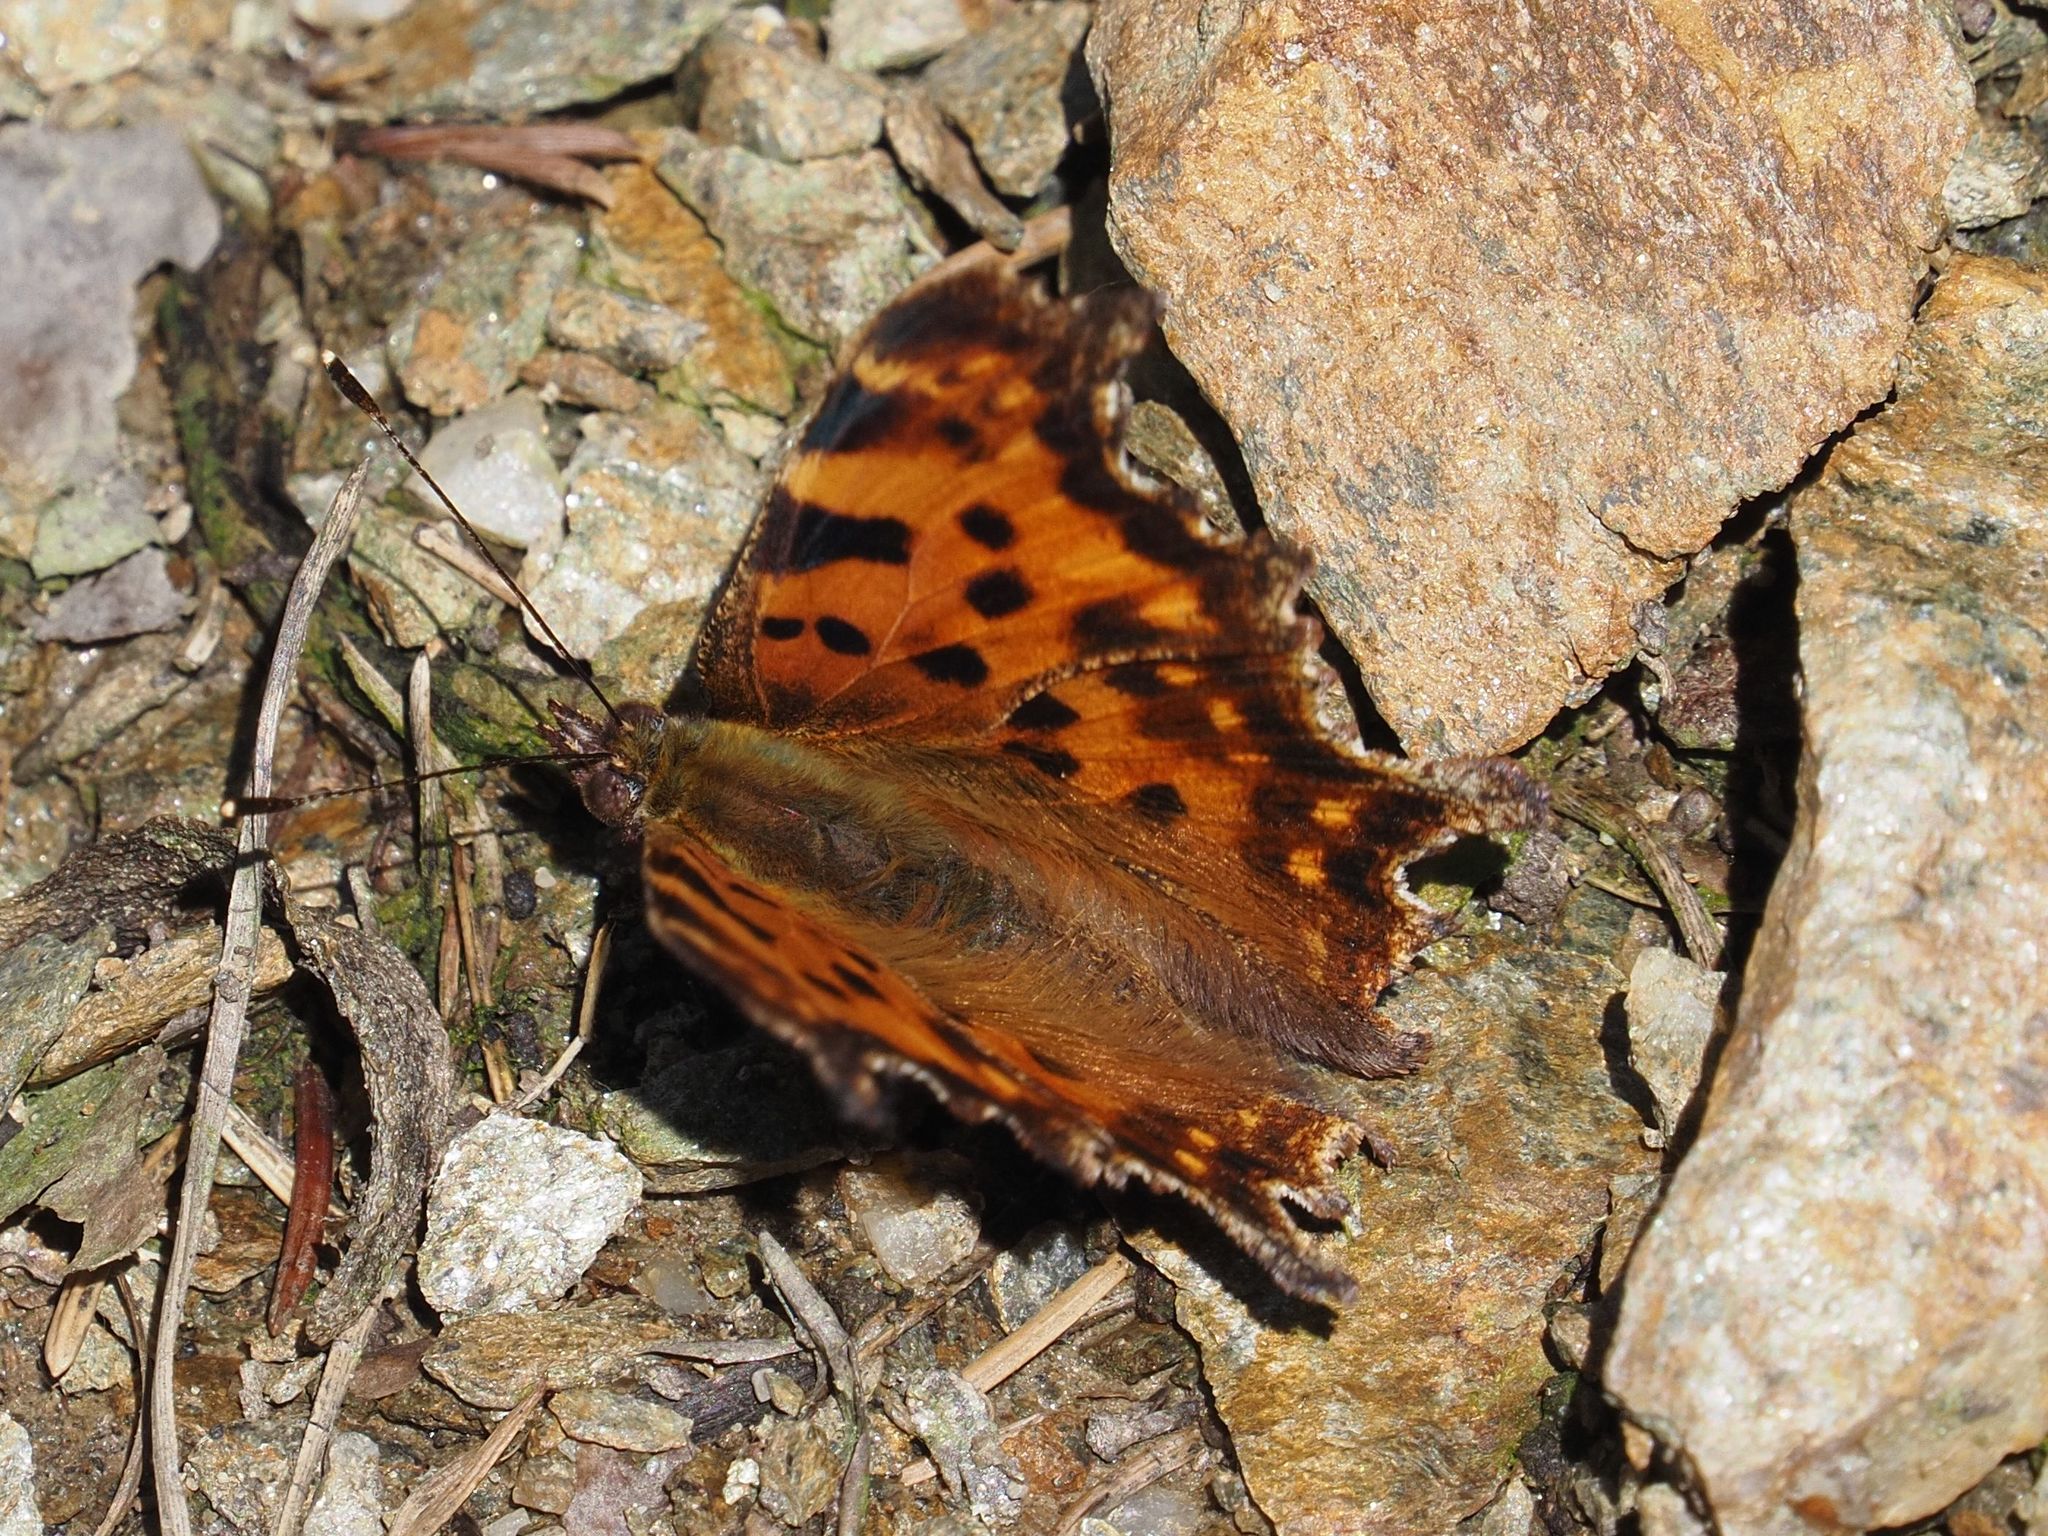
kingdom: Animalia
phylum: Arthropoda
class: Insecta
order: Lepidoptera
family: Nymphalidae
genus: Polygonia
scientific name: Polygonia c-album
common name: Comma
